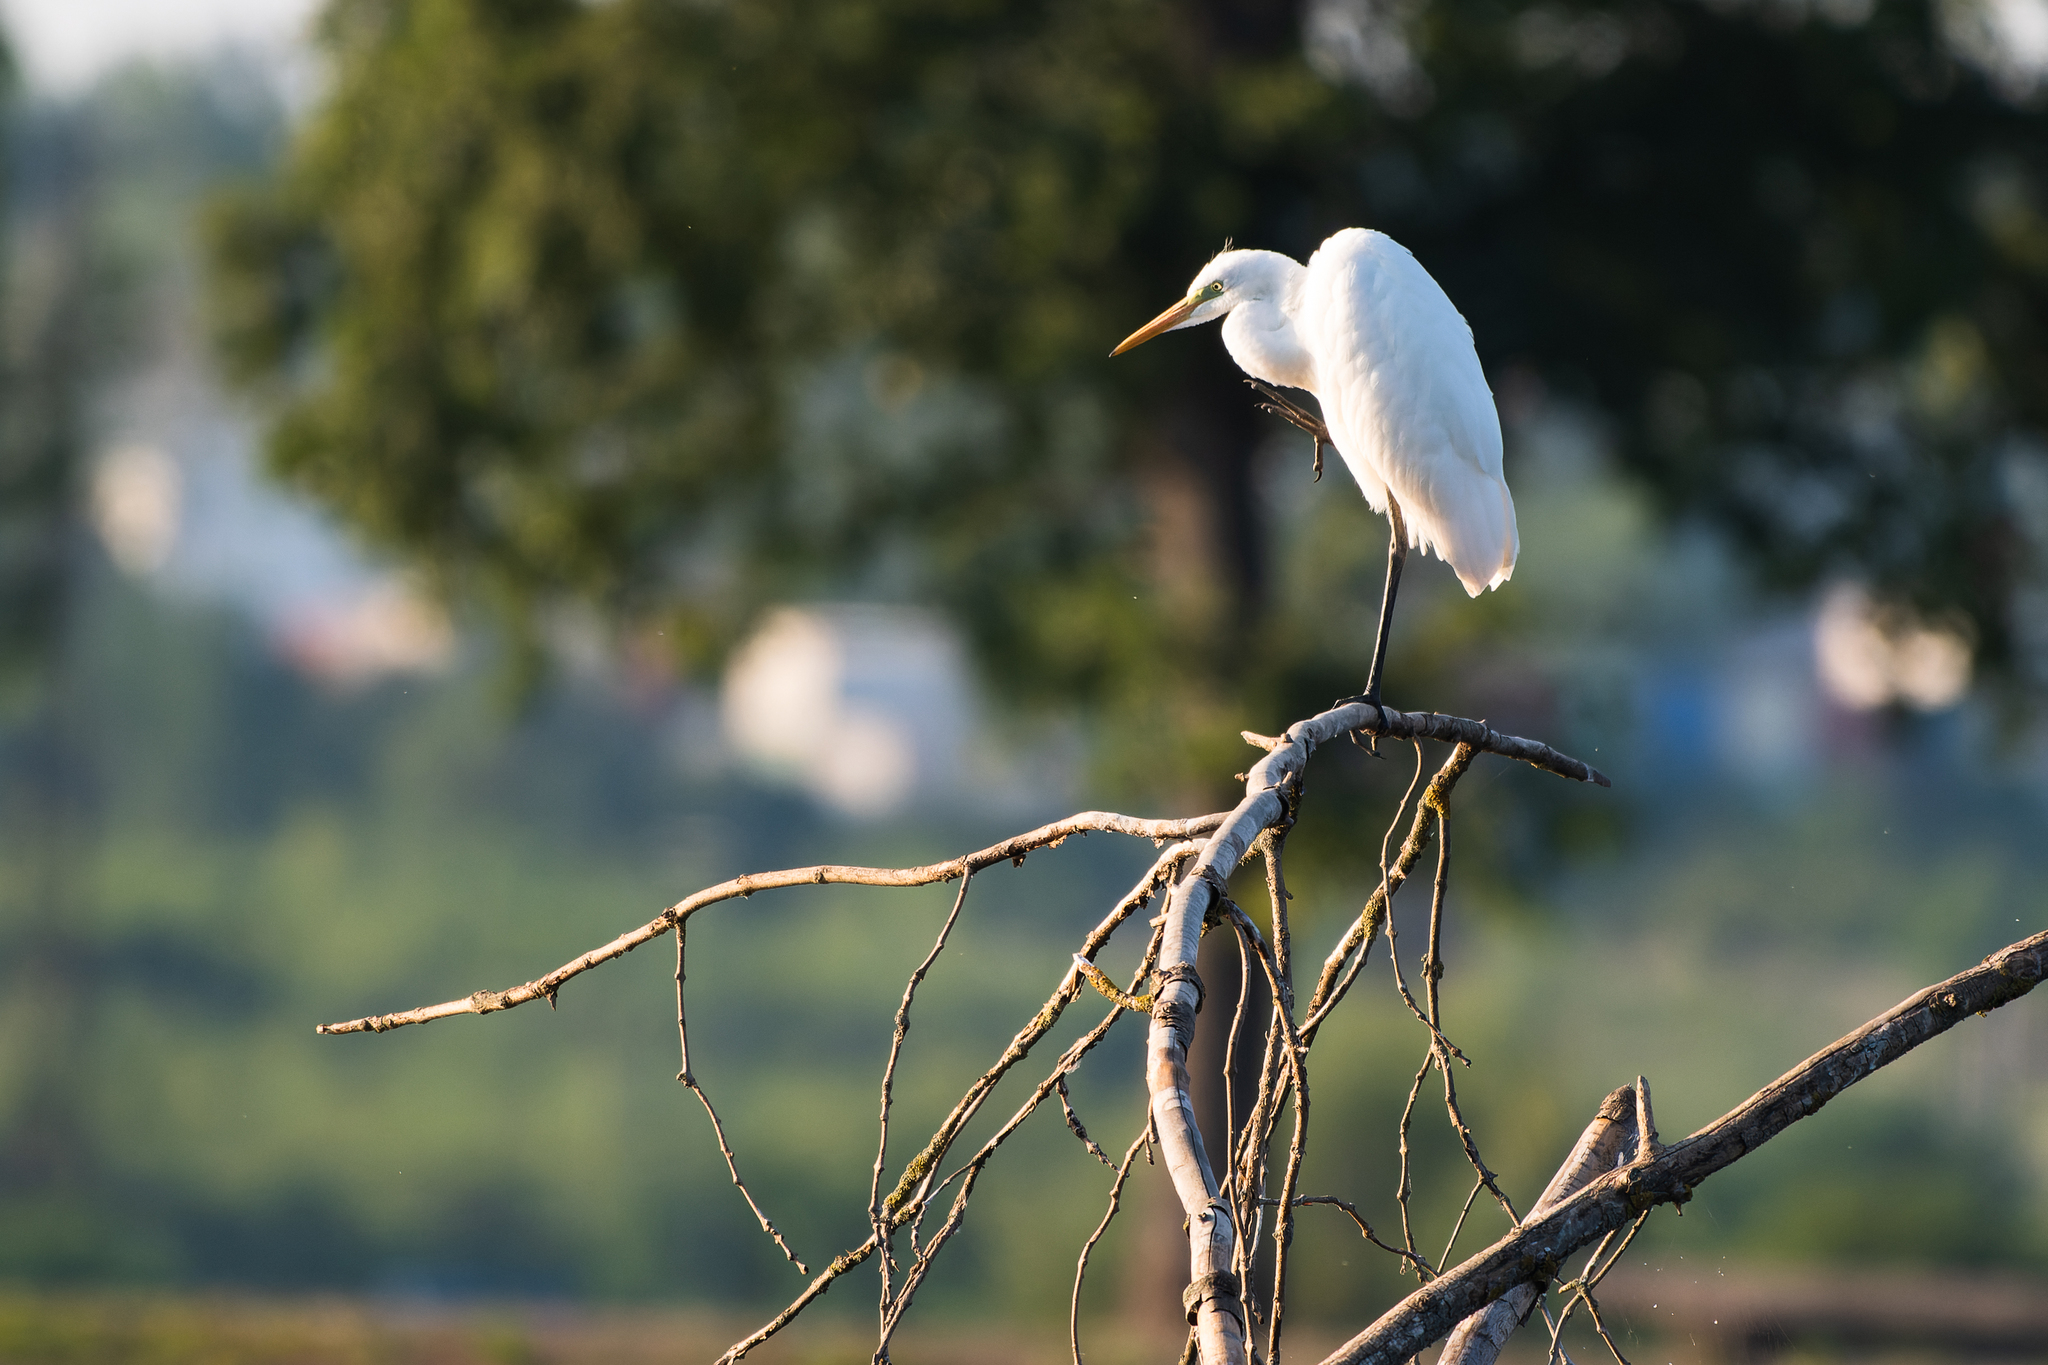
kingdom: Animalia
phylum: Chordata
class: Aves
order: Pelecaniformes
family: Ardeidae
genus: Ardea
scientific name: Ardea alba
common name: Great egret
